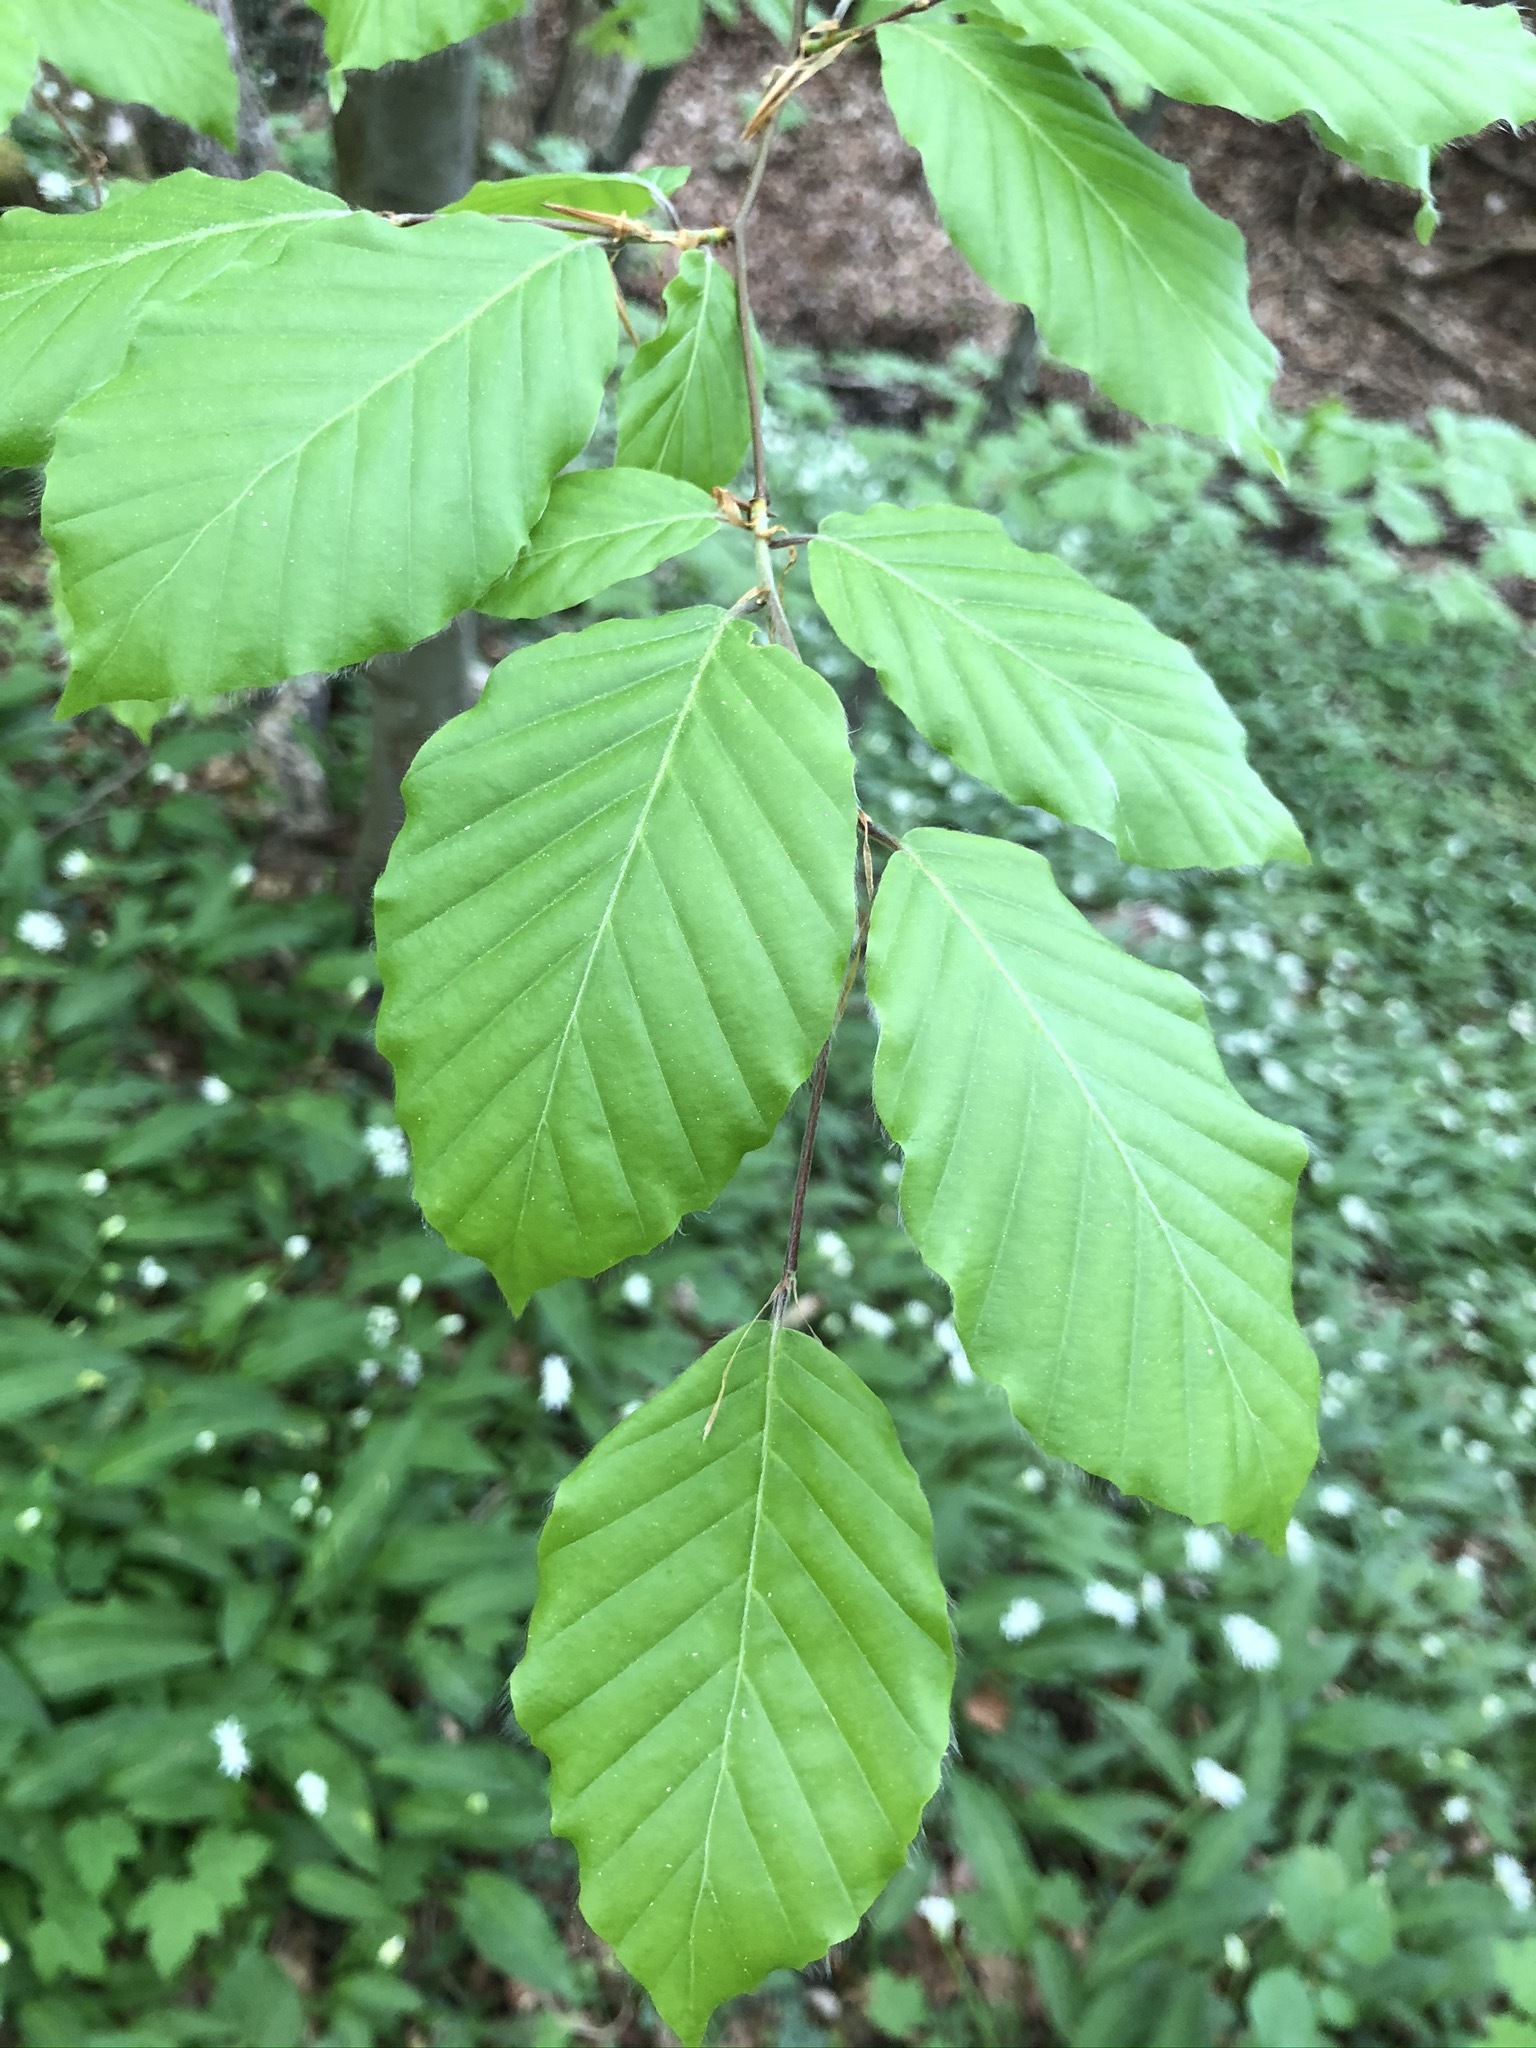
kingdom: Plantae
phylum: Tracheophyta
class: Magnoliopsida
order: Fagales
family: Fagaceae
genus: Fagus
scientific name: Fagus sylvatica
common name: Beech
